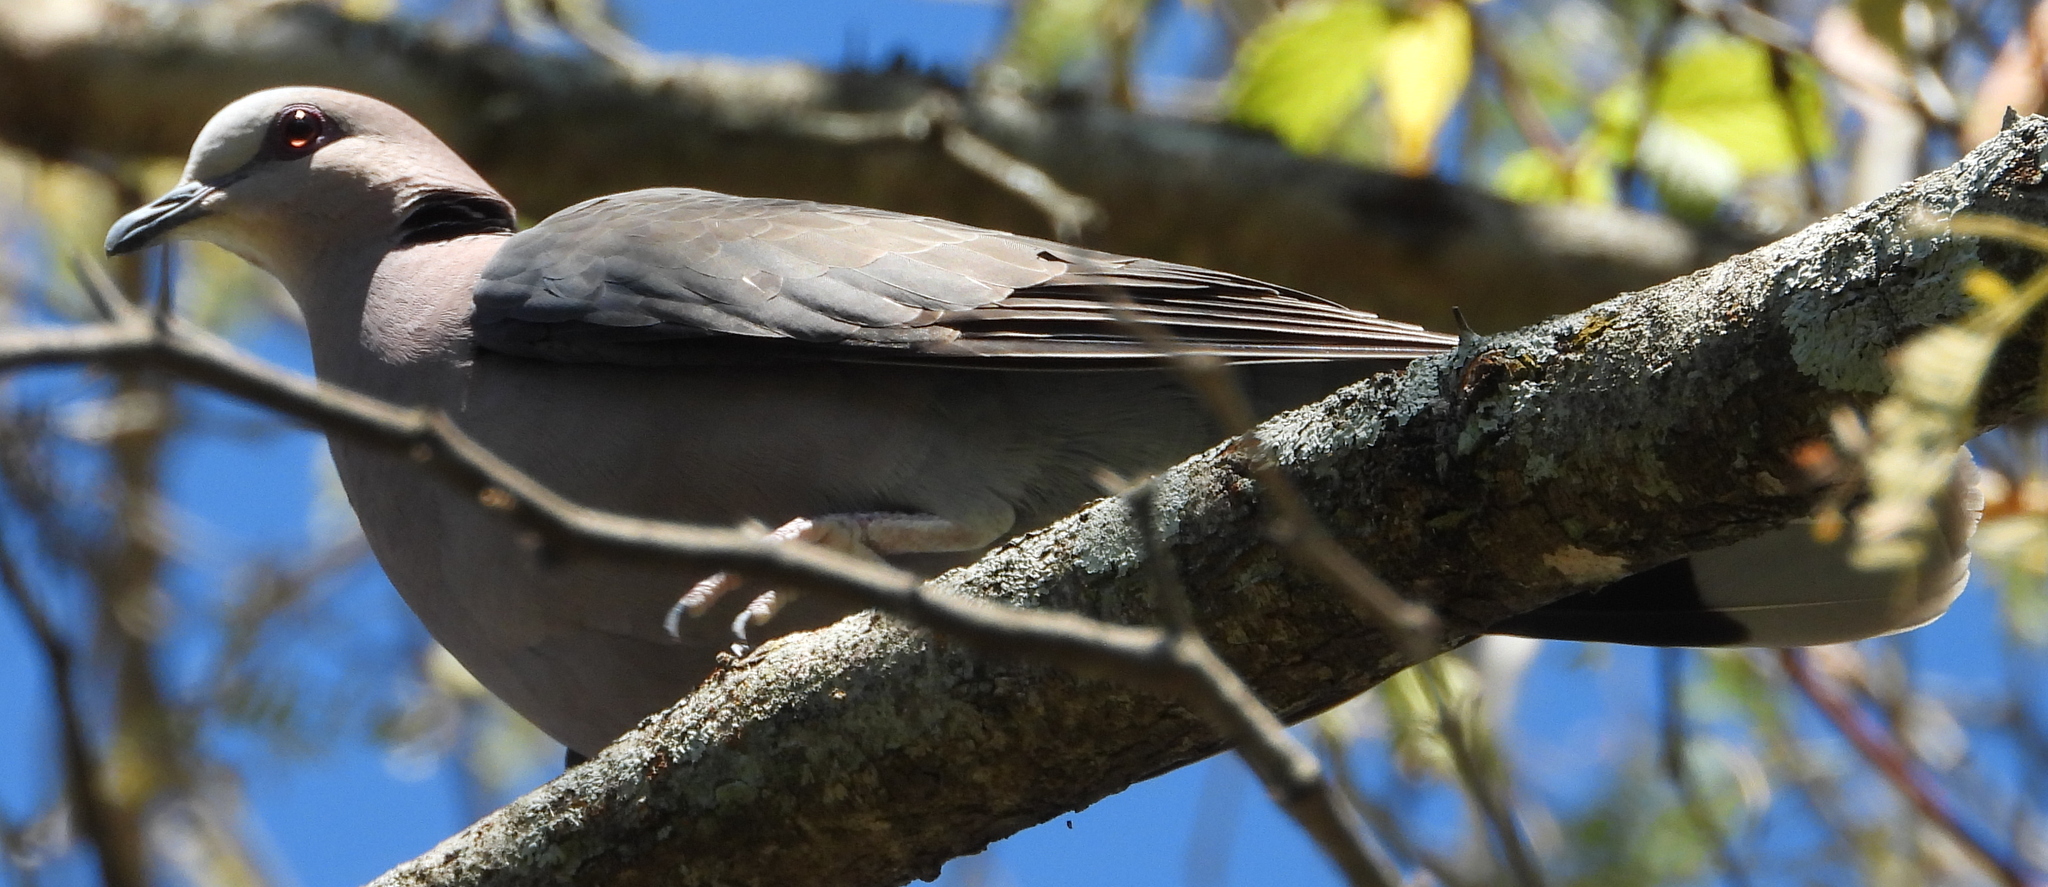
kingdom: Animalia
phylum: Chordata
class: Aves
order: Columbiformes
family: Columbidae
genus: Streptopelia
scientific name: Streptopelia semitorquata
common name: Red-eyed dove
